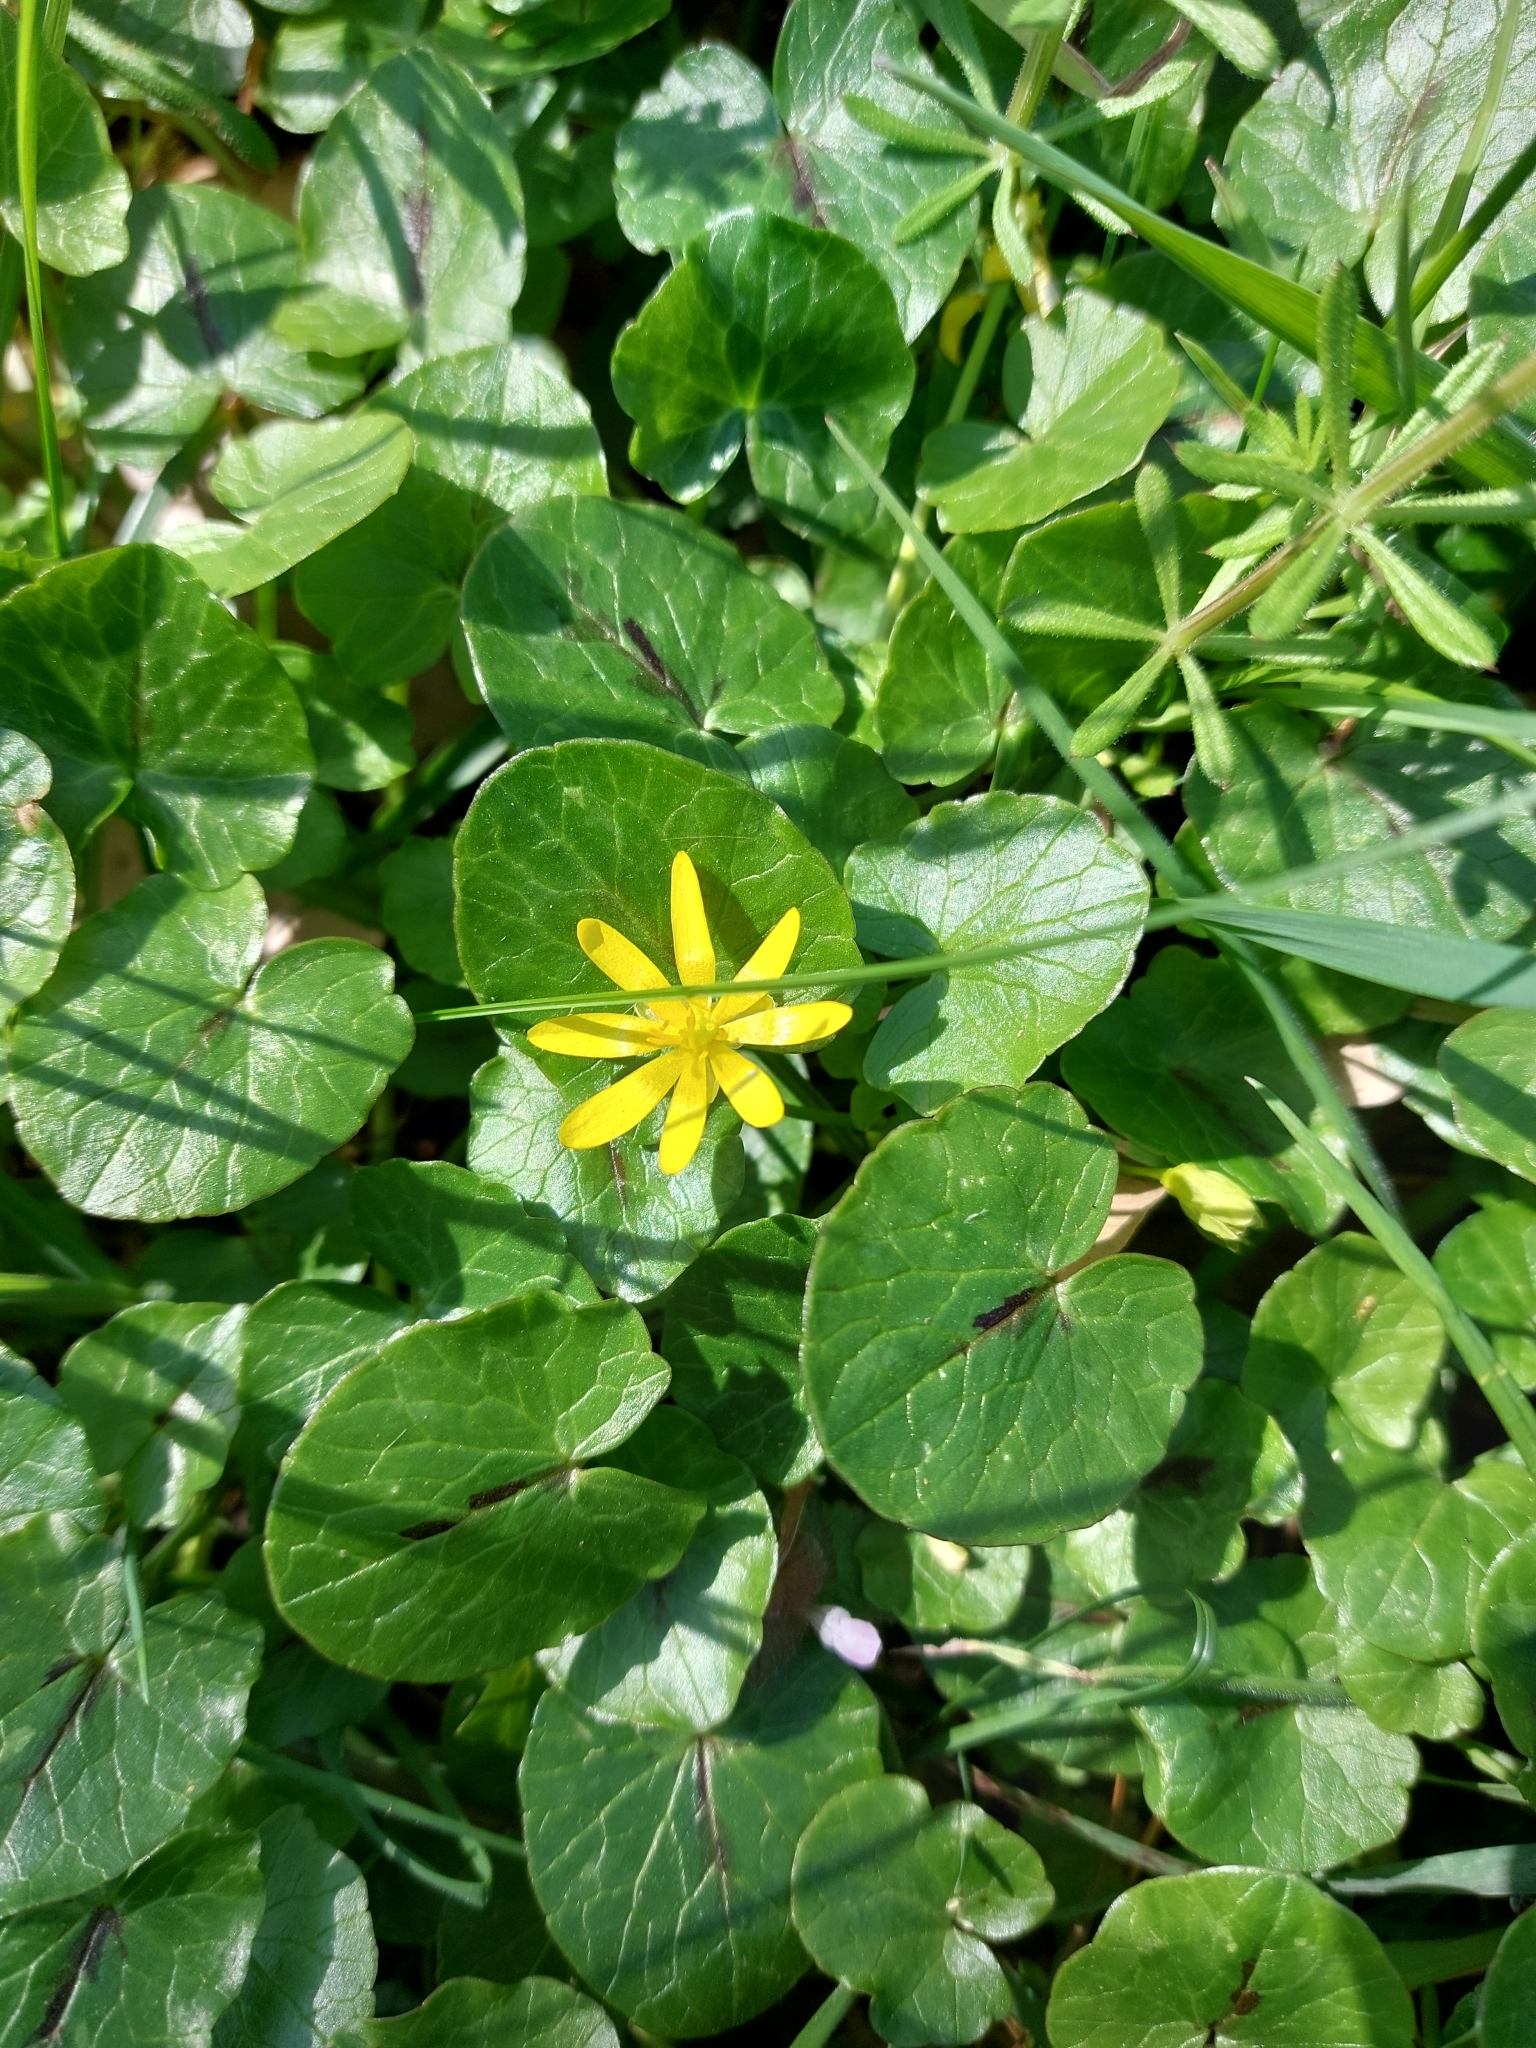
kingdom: Plantae
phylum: Tracheophyta
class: Magnoliopsida
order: Ranunculales
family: Ranunculaceae
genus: Ficaria
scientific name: Ficaria verna
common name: Lesser celandine
